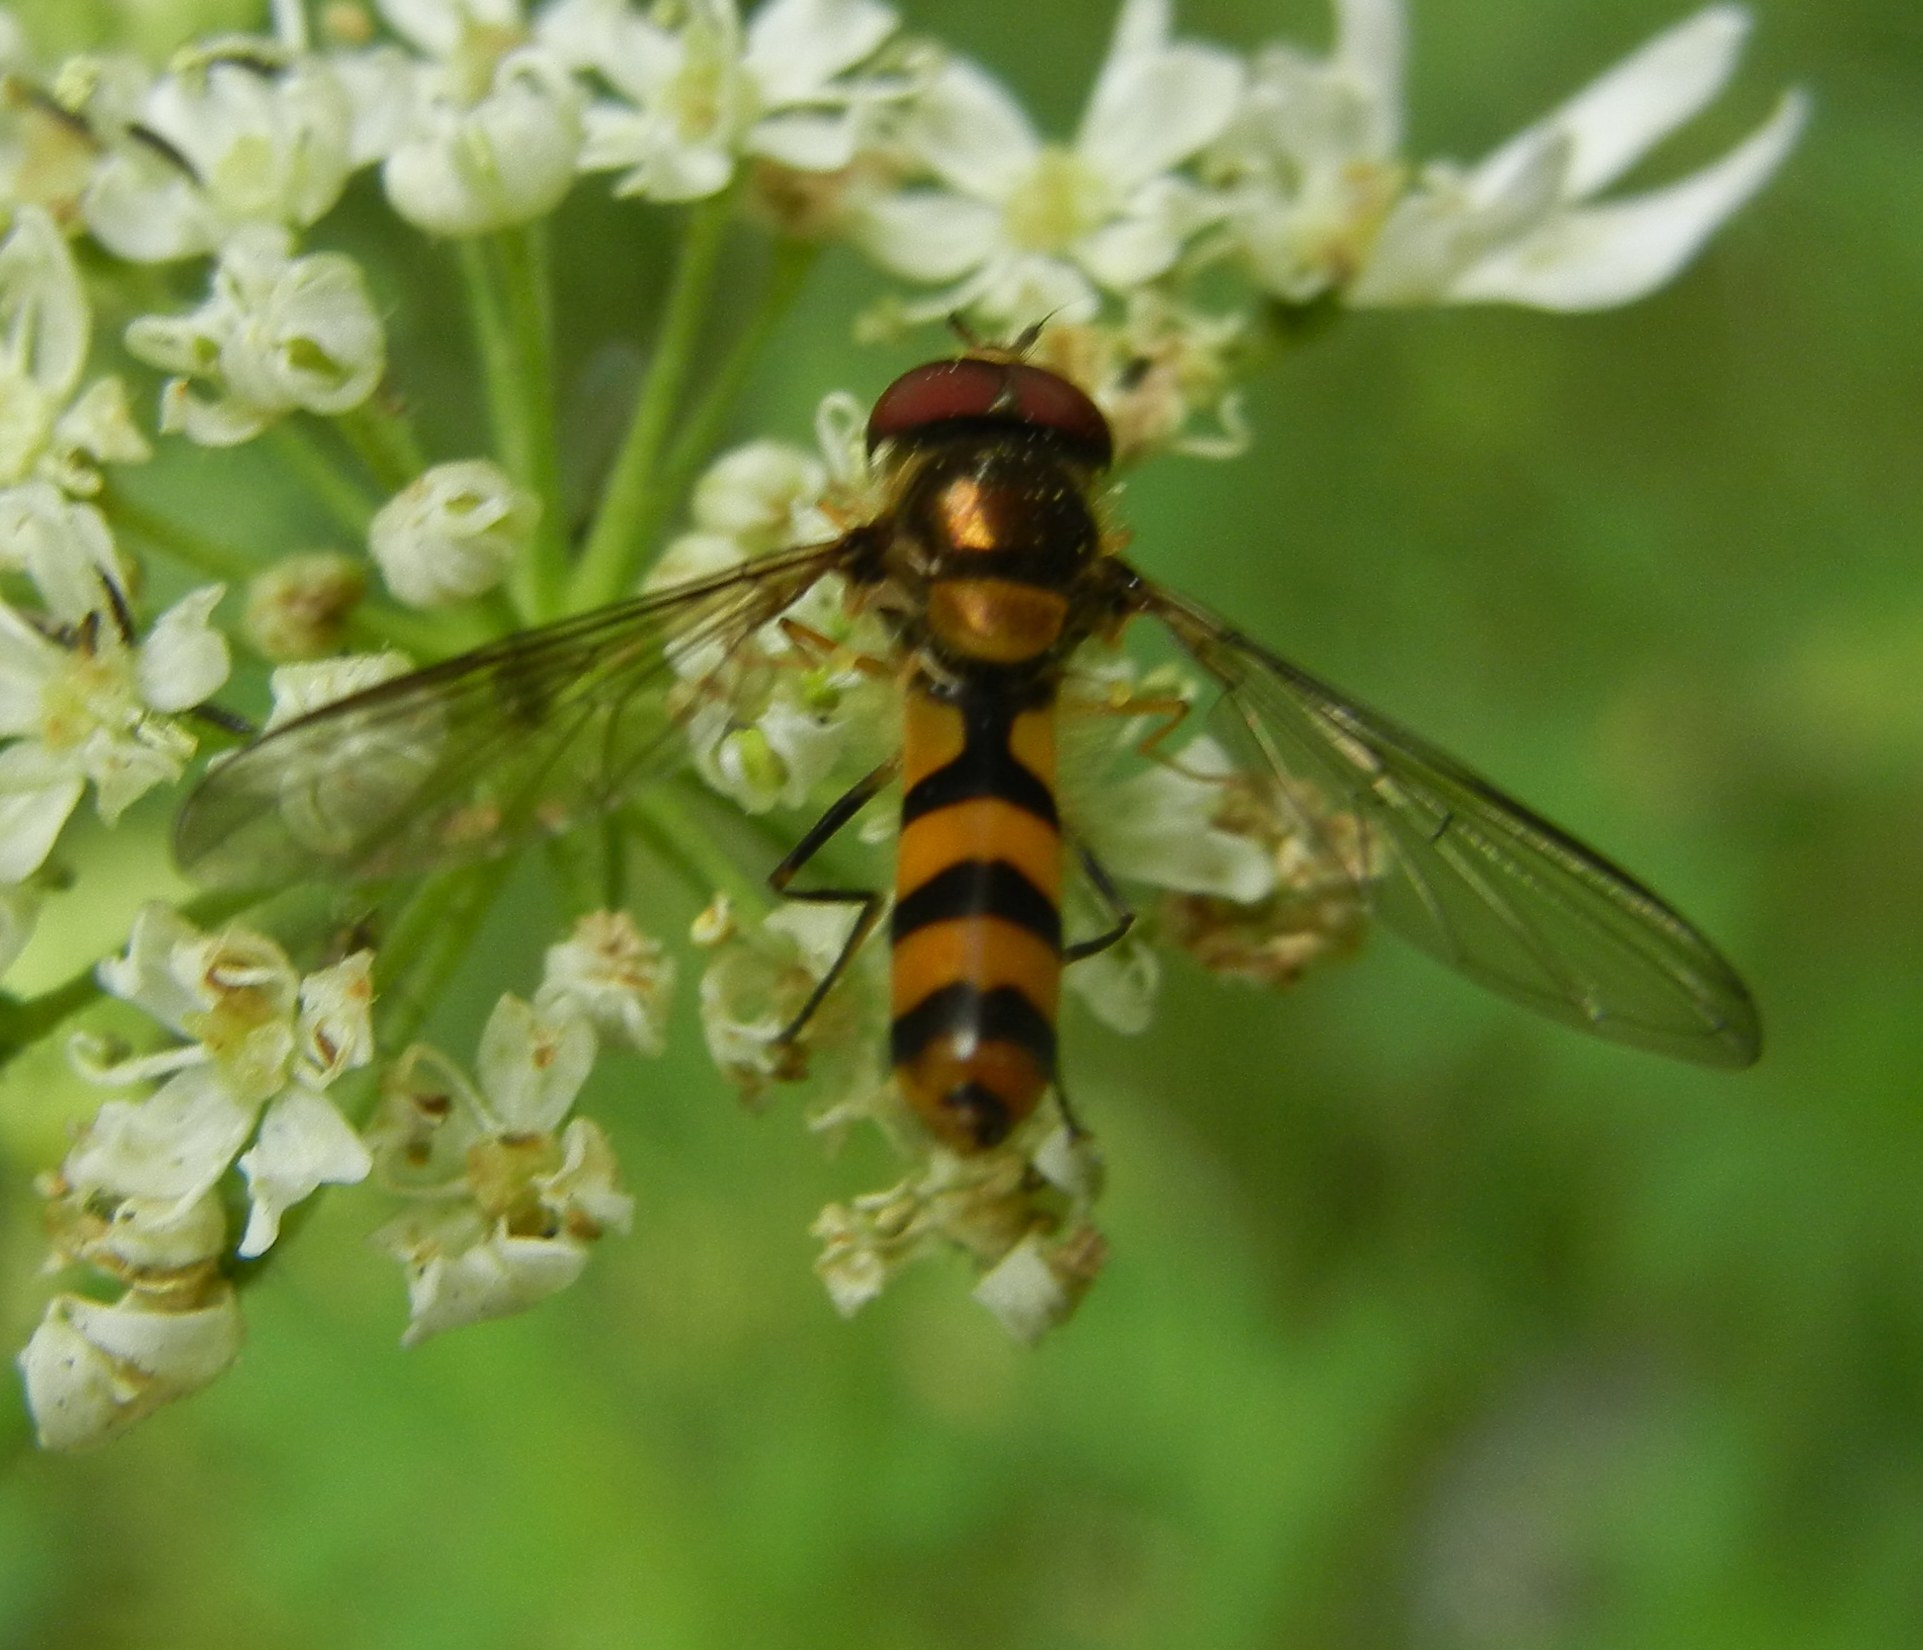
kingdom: Animalia
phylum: Arthropoda
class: Insecta
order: Diptera
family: Syrphidae
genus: Meliscaeva
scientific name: Meliscaeva cinctella
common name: American thintail fly
